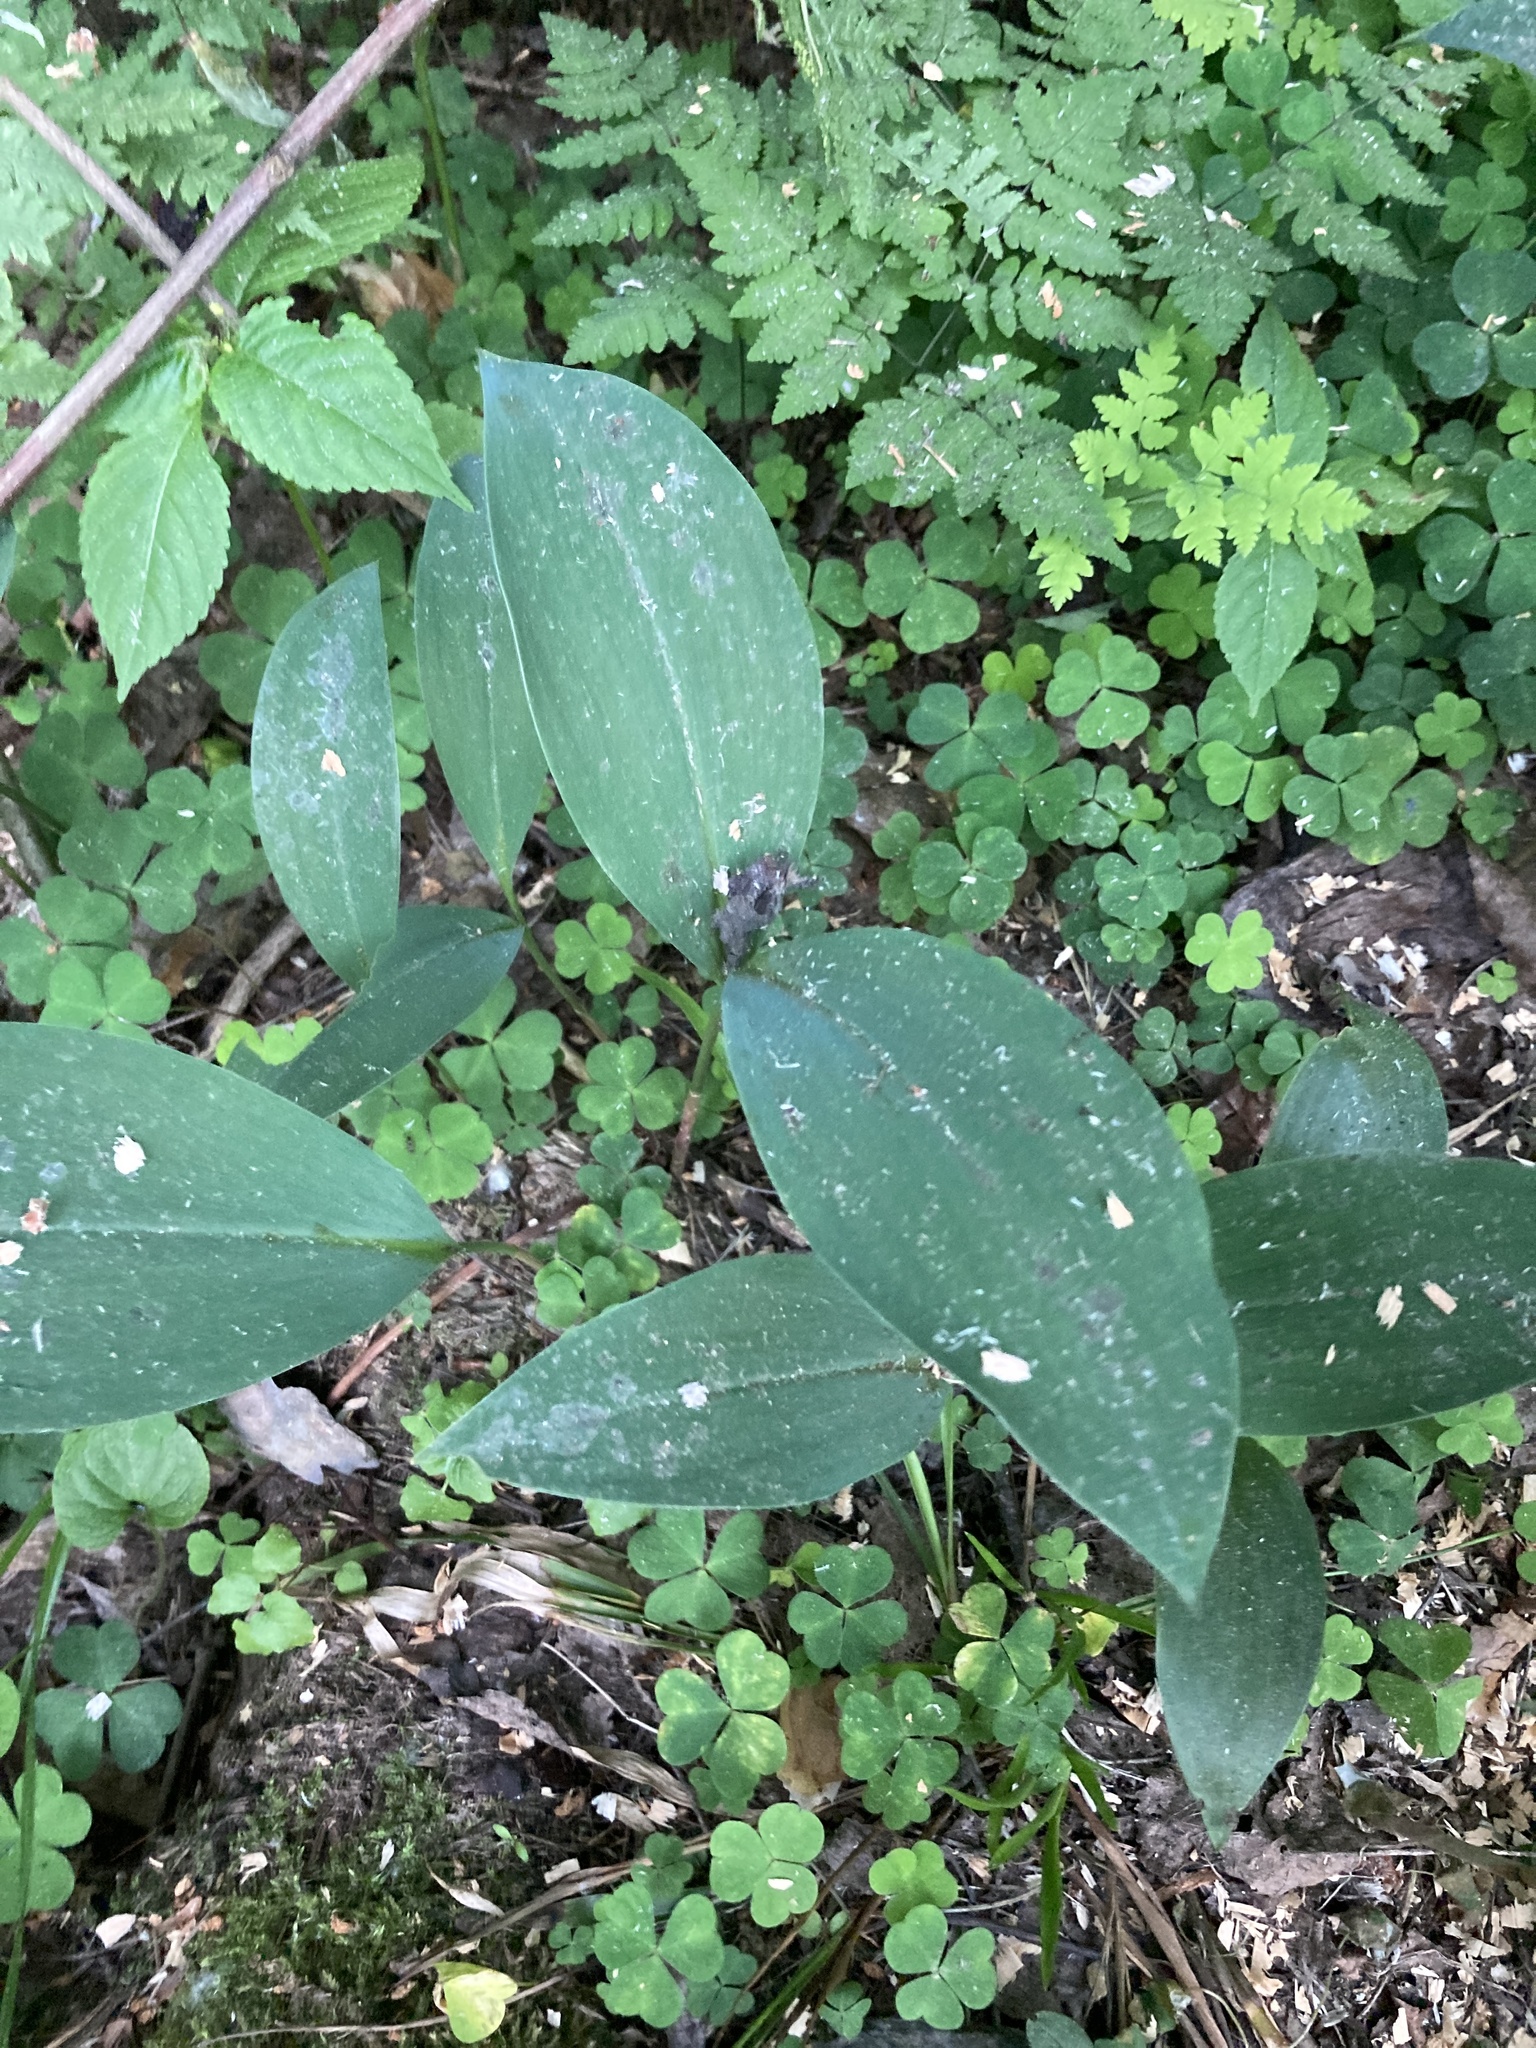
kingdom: Plantae
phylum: Tracheophyta
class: Liliopsida
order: Asparagales
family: Asparagaceae
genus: Convallaria
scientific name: Convallaria majalis
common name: Lily-of-the-valley
